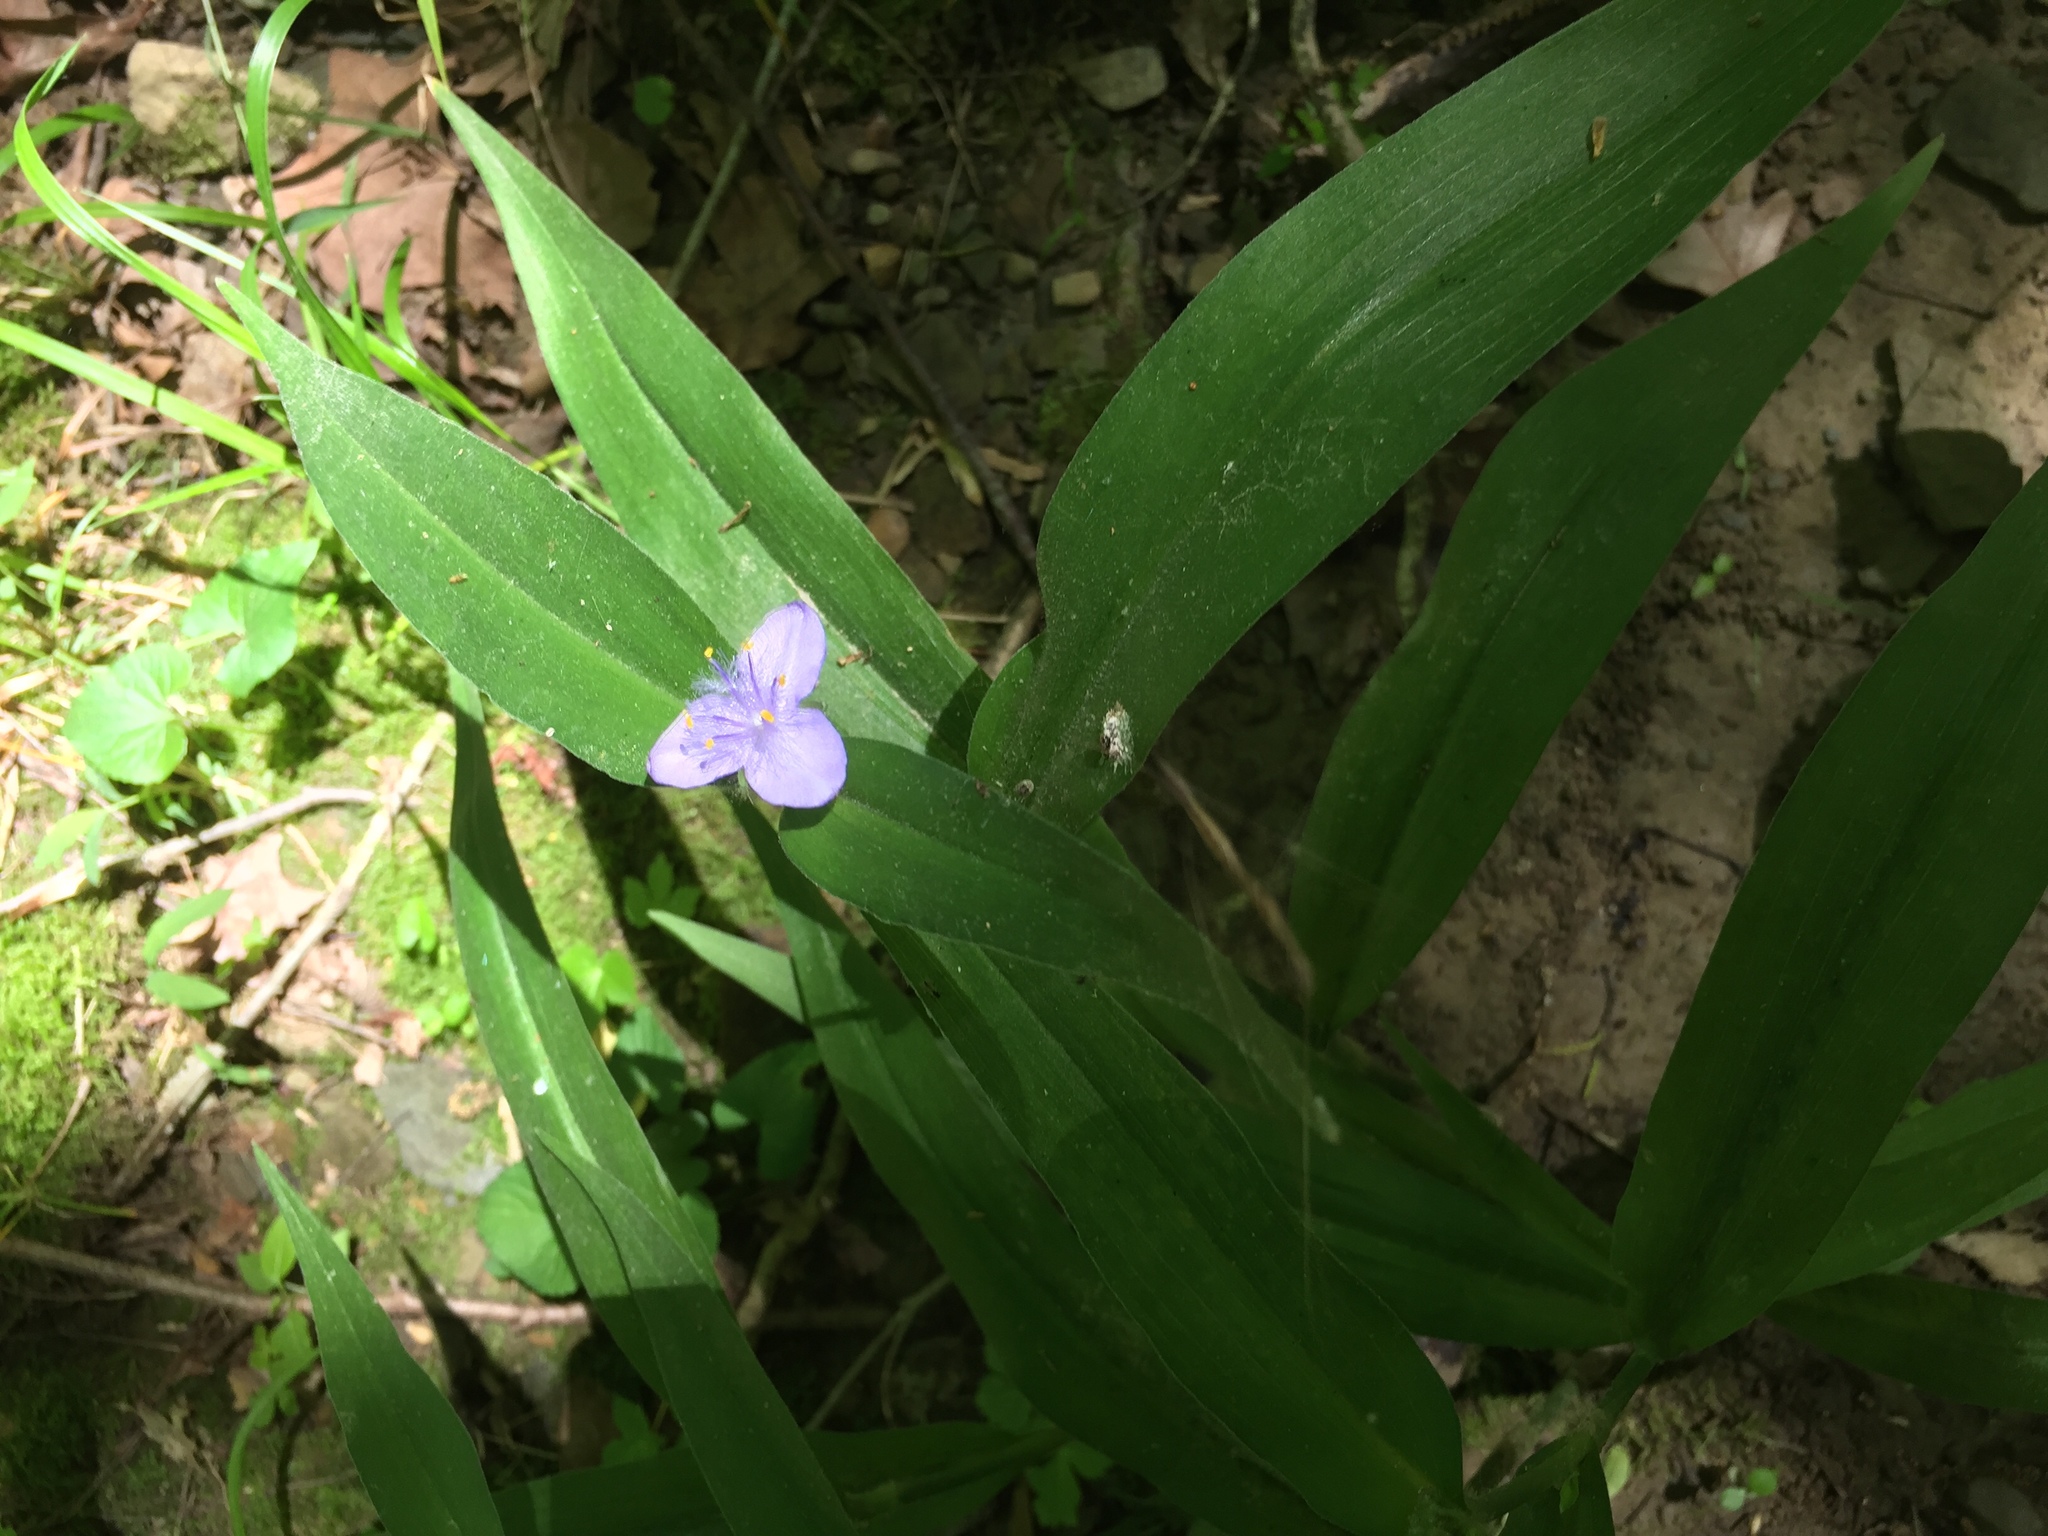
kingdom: Plantae
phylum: Tracheophyta
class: Liliopsida
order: Commelinales
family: Commelinaceae
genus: Tradescantia
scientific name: Tradescantia subaspera
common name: Wide-leaf spiderwort
